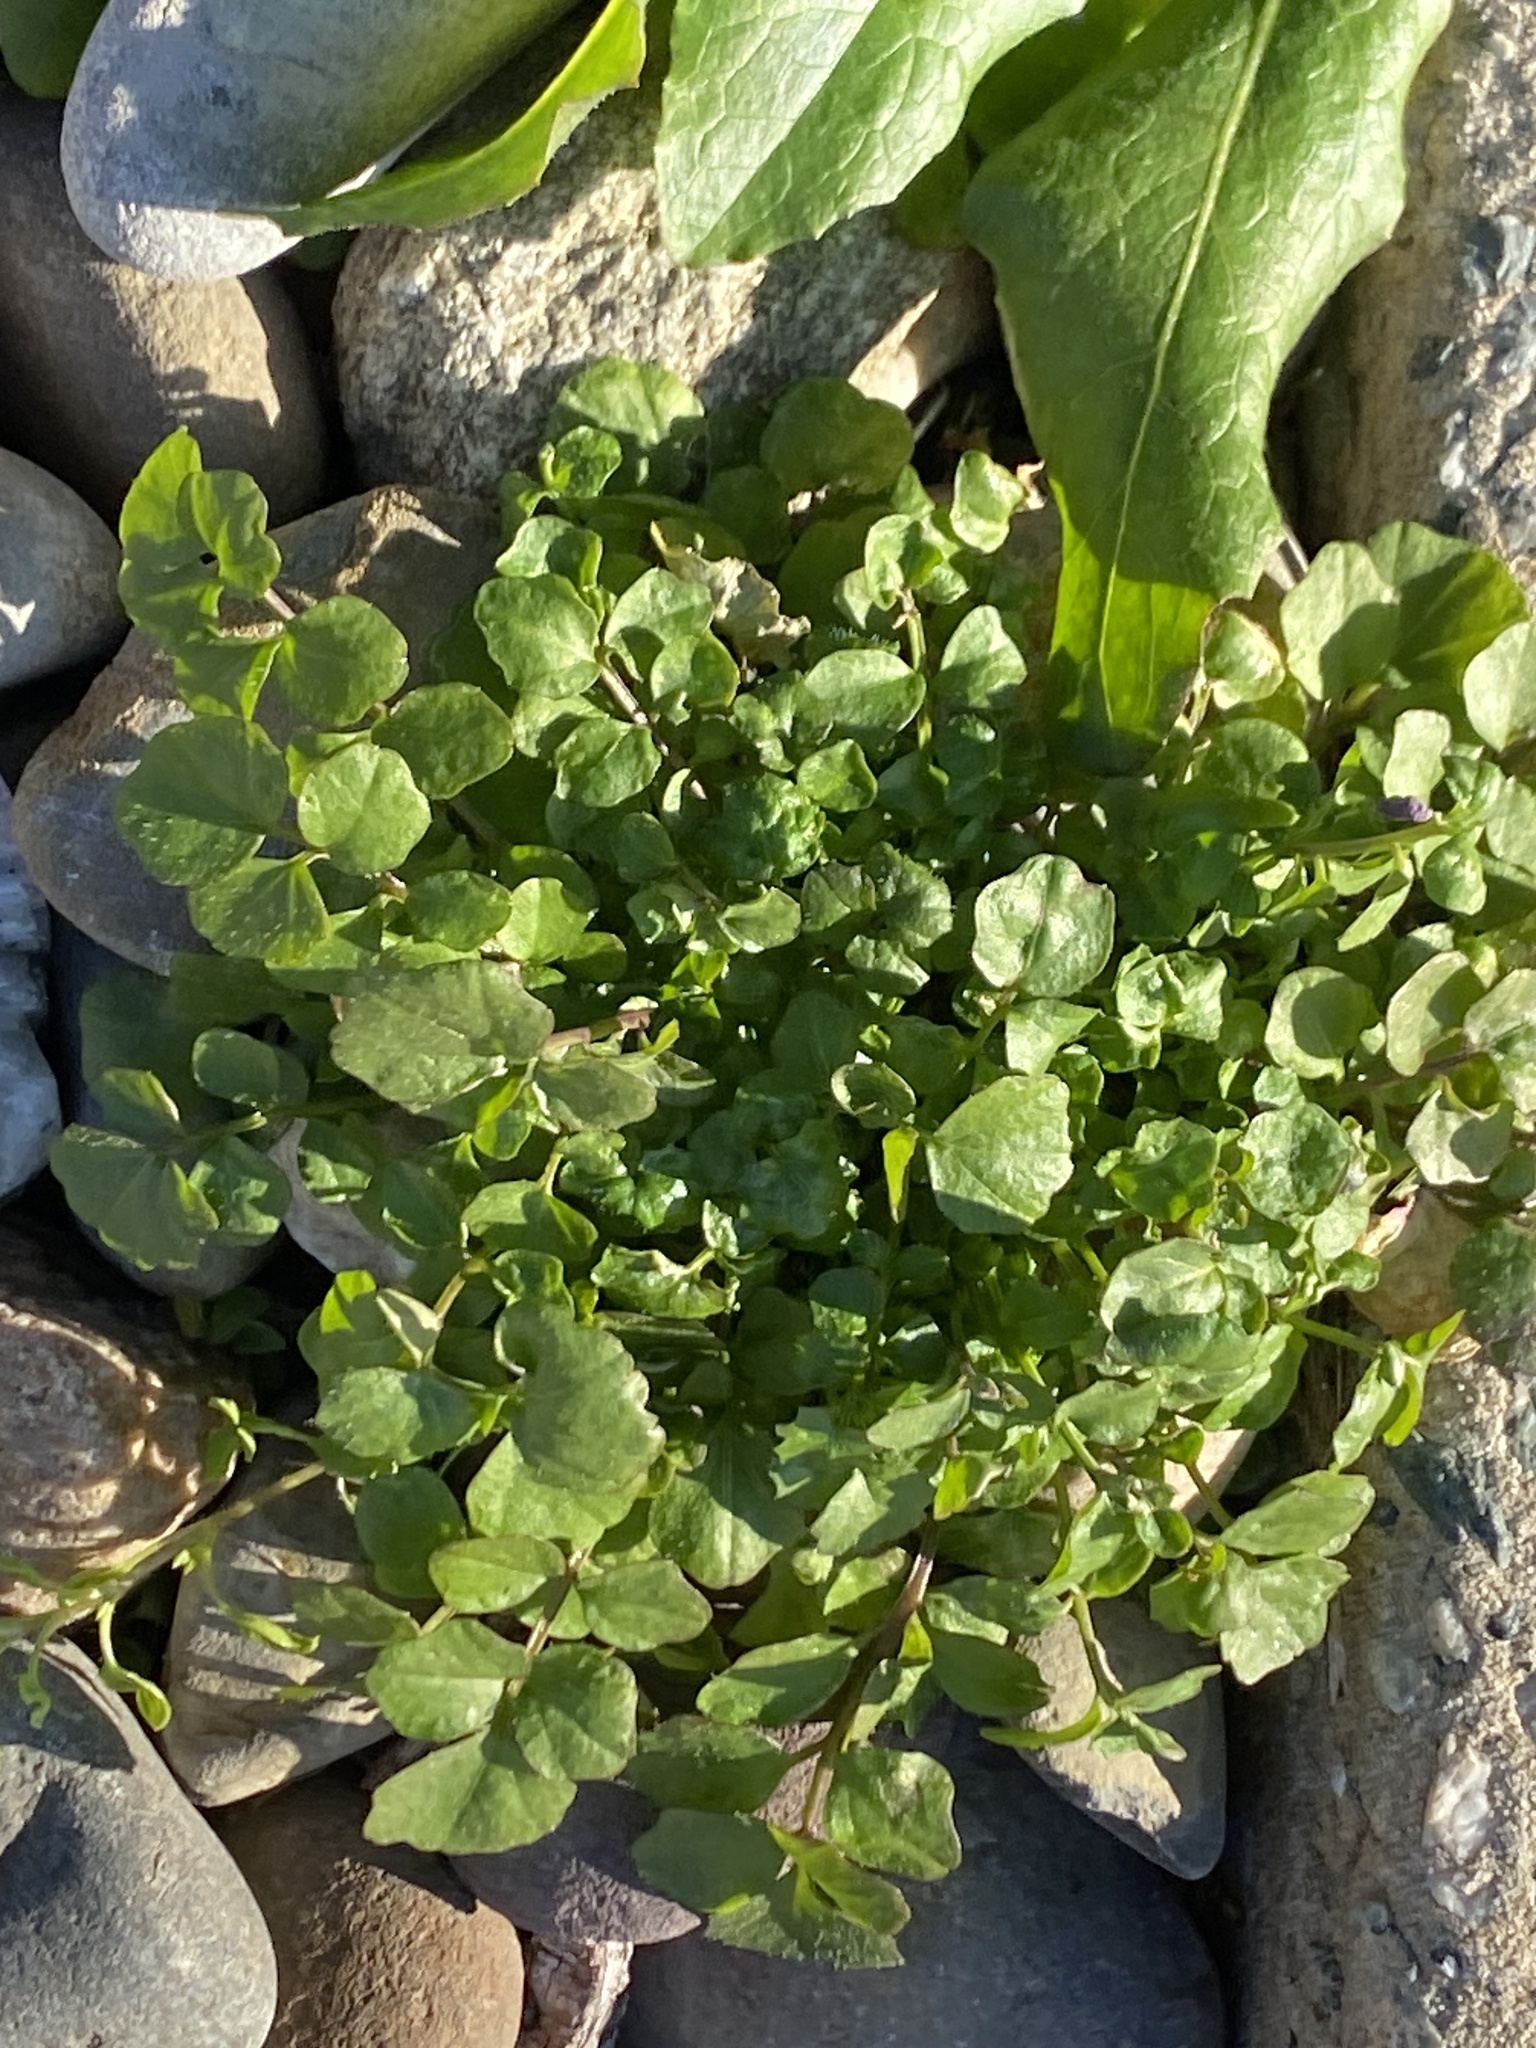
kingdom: Plantae
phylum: Tracheophyta
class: Magnoliopsida
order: Brassicales
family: Brassicaceae
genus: Cardamine
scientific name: Cardamine hirsuta
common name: Hairy bittercress
